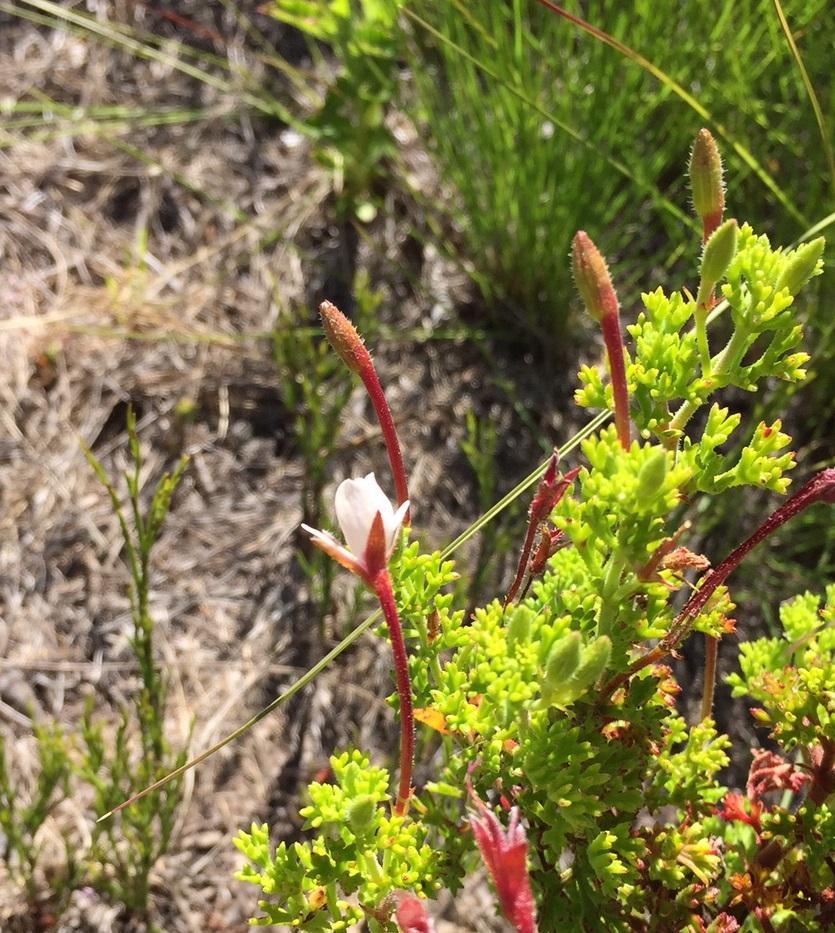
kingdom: Plantae
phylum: Tracheophyta
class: Magnoliopsida
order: Geraniales
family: Geraniaceae
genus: Pelargonium
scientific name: Pelargonium fruticosum
